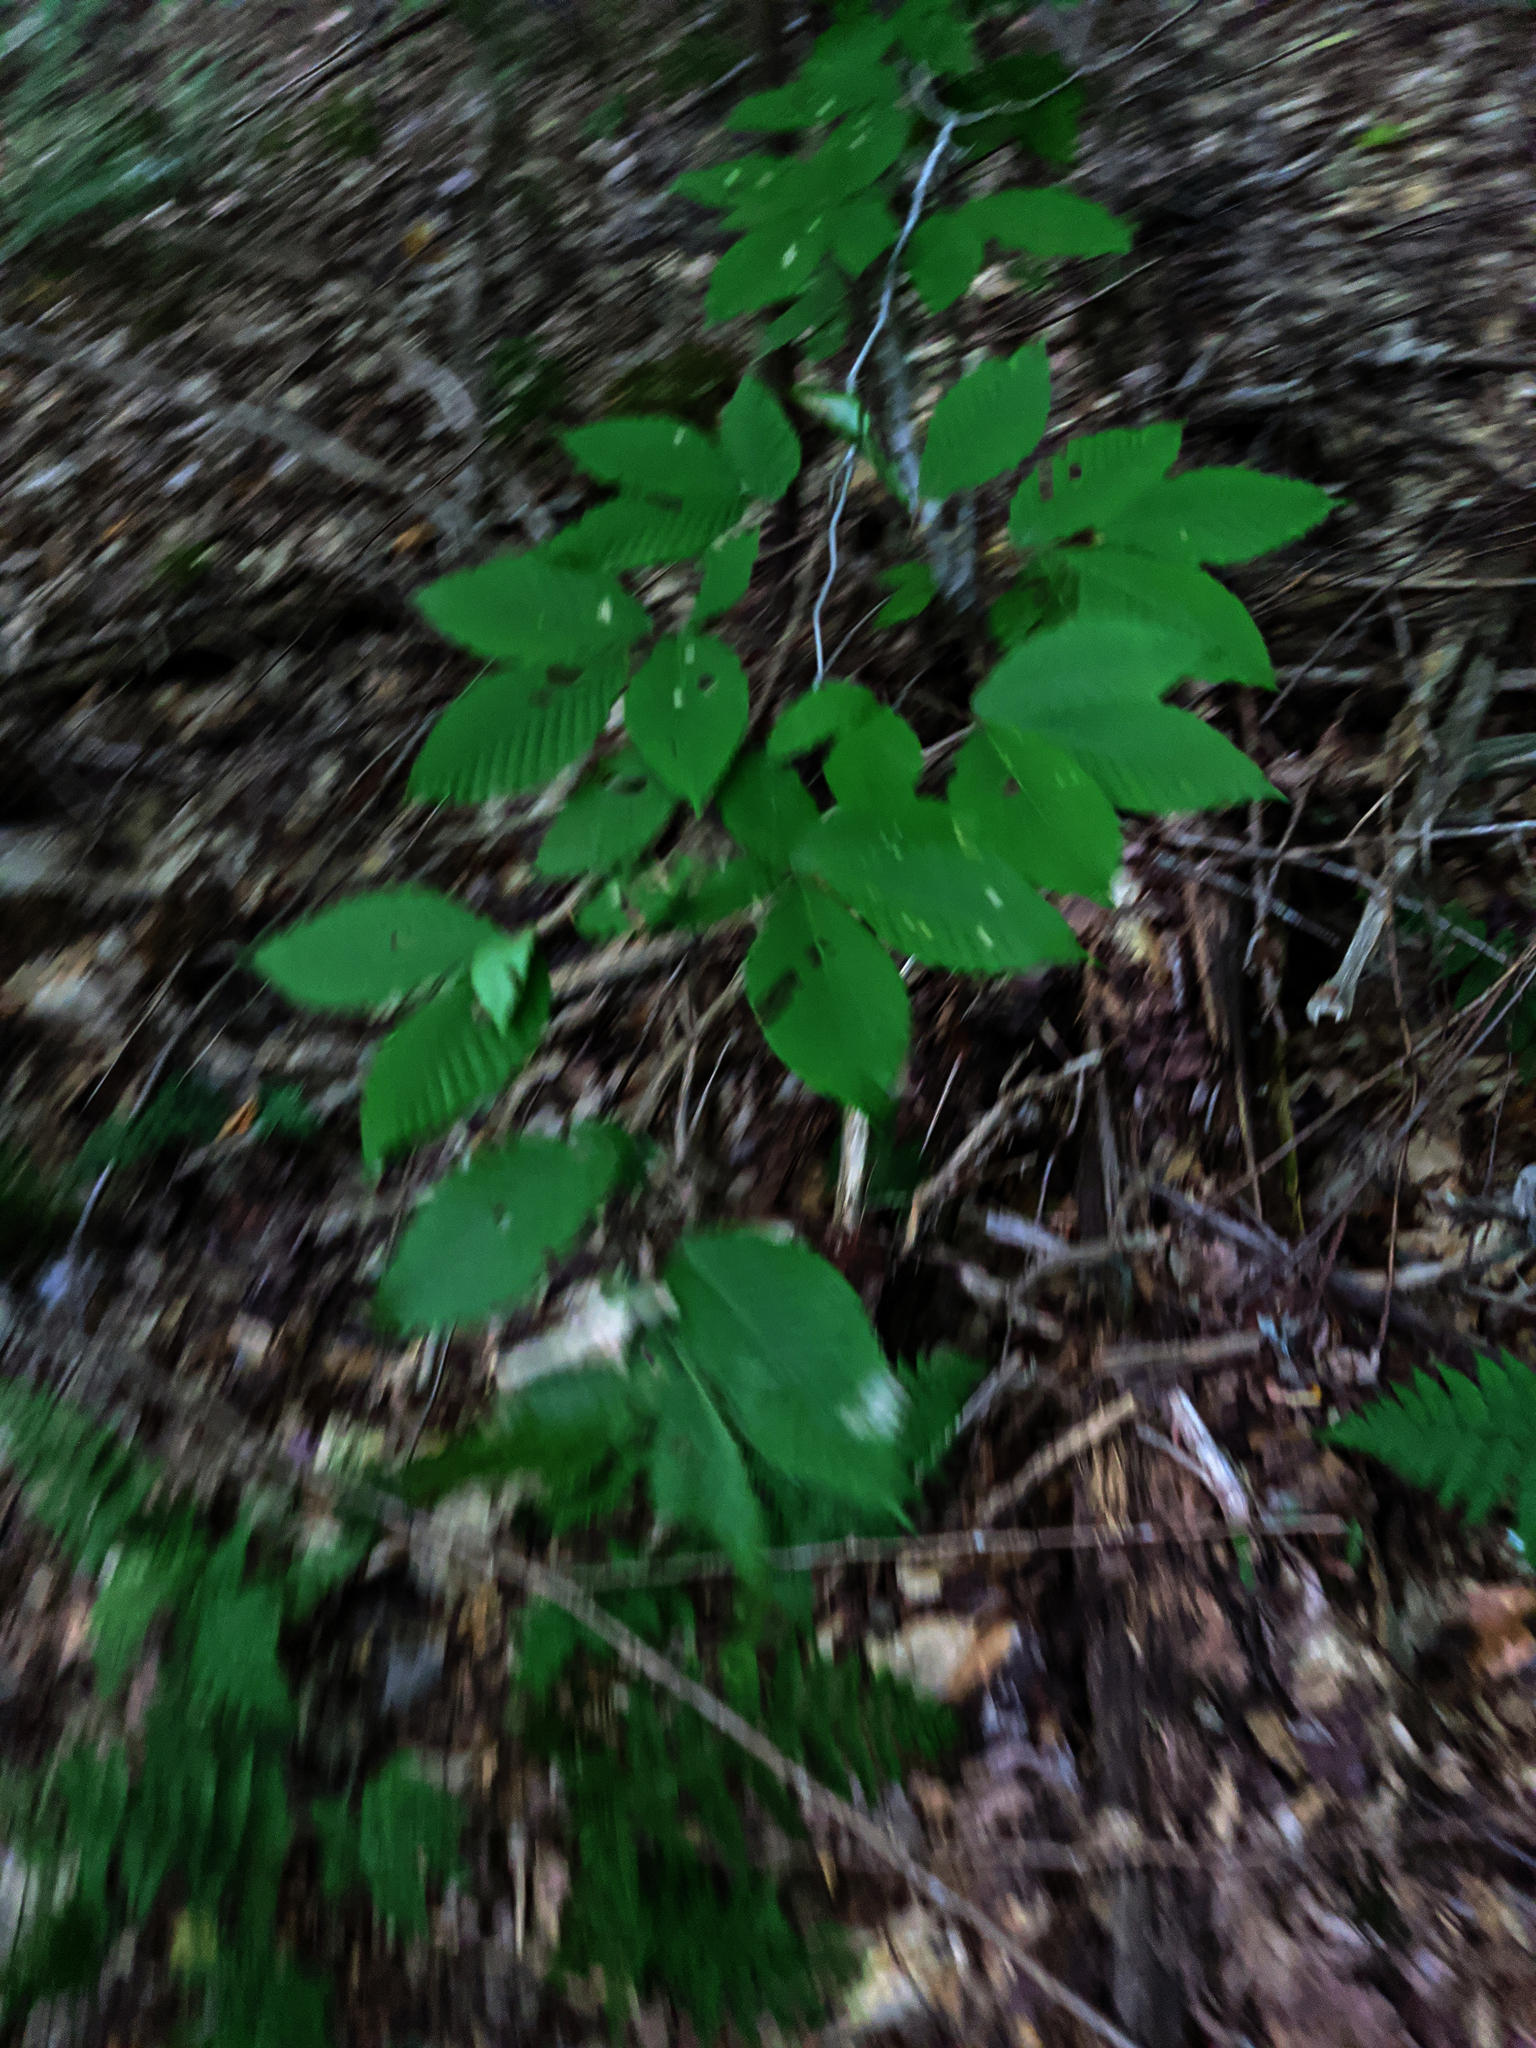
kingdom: Plantae
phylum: Tracheophyta
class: Magnoliopsida
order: Fagales
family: Fagaceae
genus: Fagus
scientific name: Fagus grandifolia
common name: American beech
